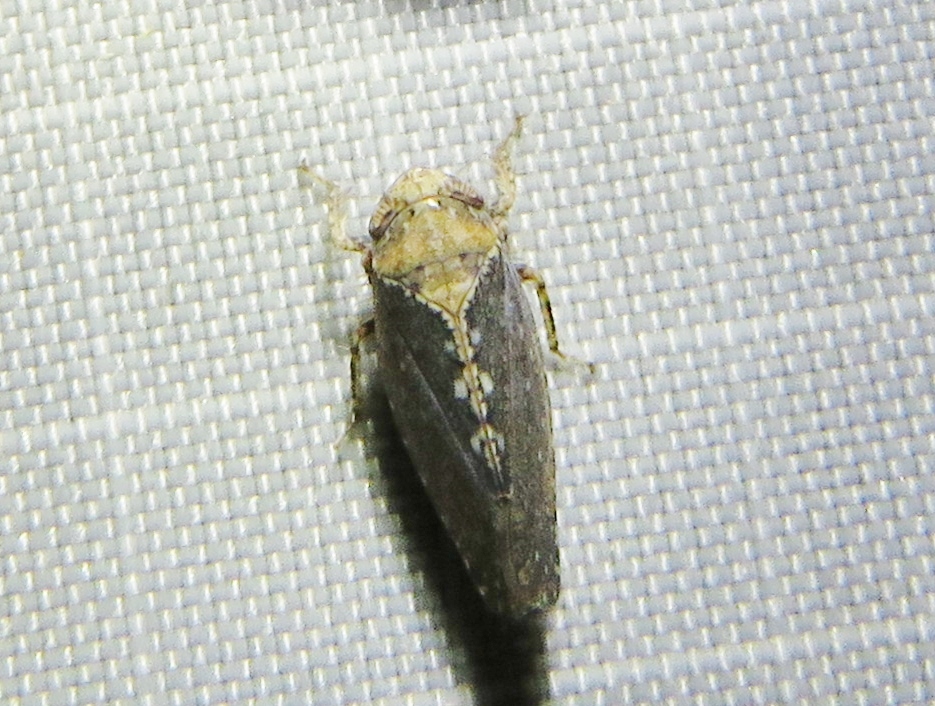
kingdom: Animalia
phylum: Arthropoda
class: Insecta
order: Hemiptera
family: Cicadellidae
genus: Excultanus
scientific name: Excultanus excultus
